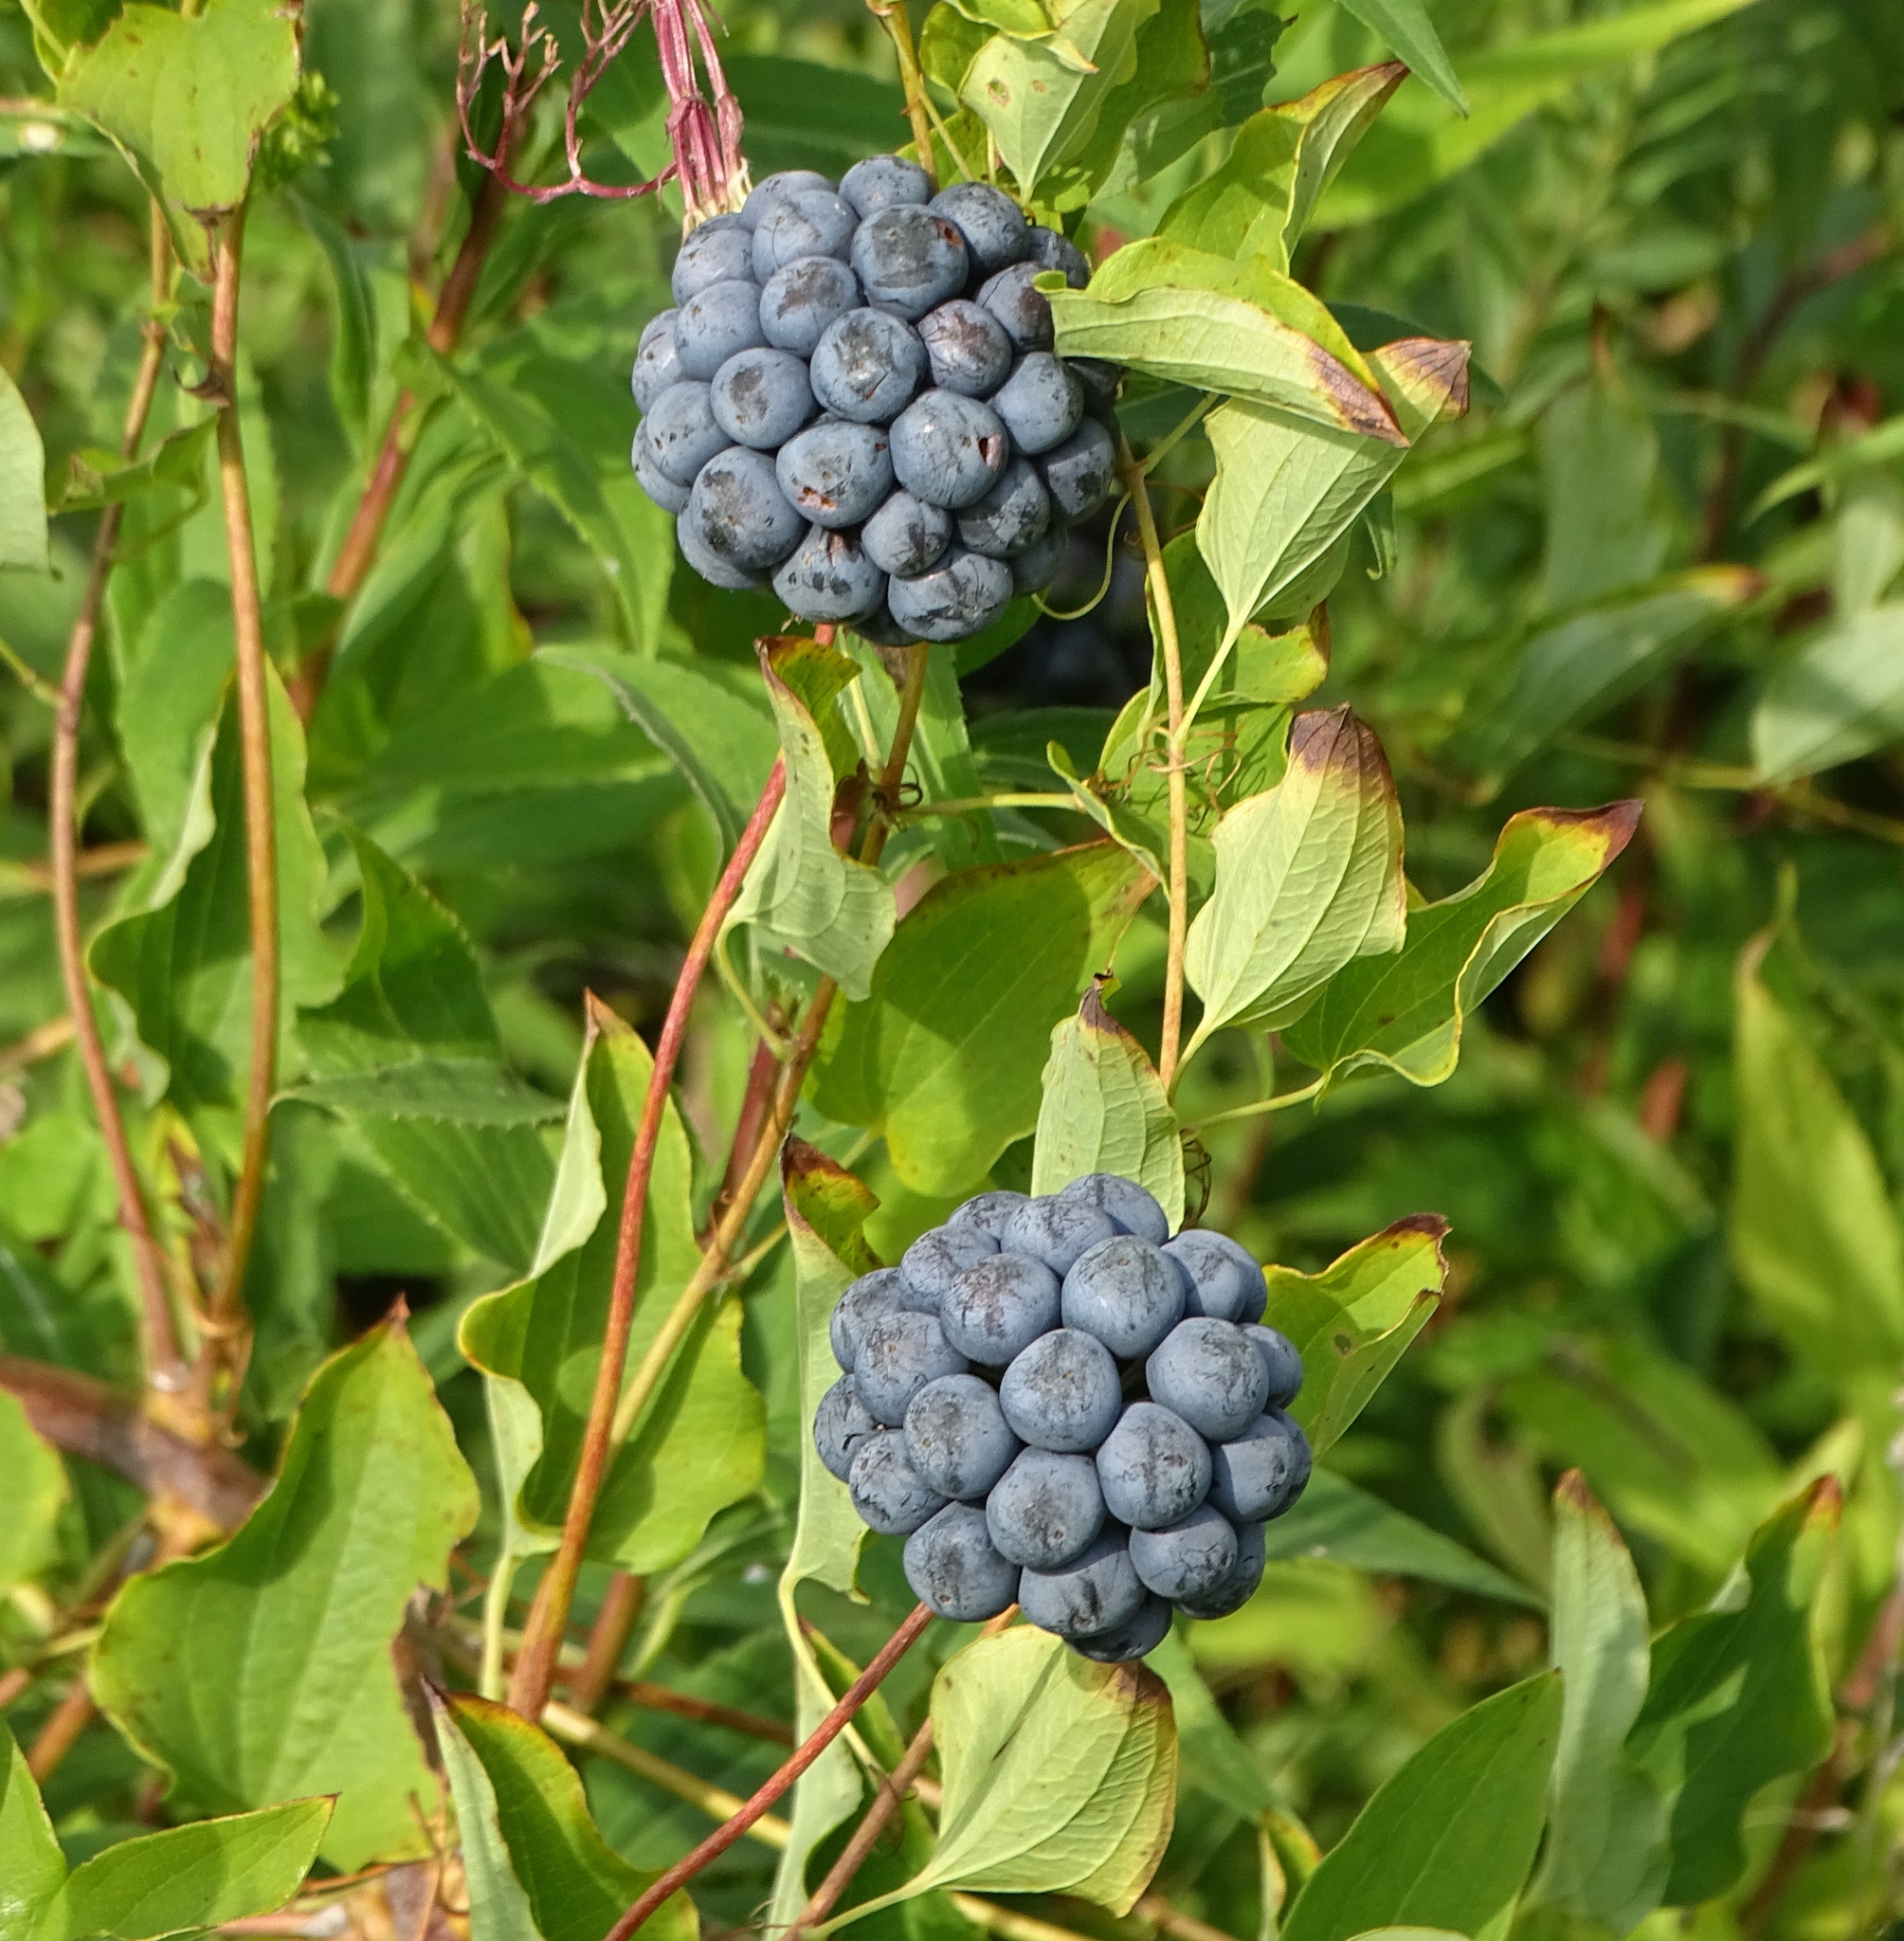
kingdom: Plantae
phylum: Tracheophyta
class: Liliopsida
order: Liliales
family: Smilacaceae
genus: Smilax
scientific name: Smilax herbacea
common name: Jacob's-ladder
